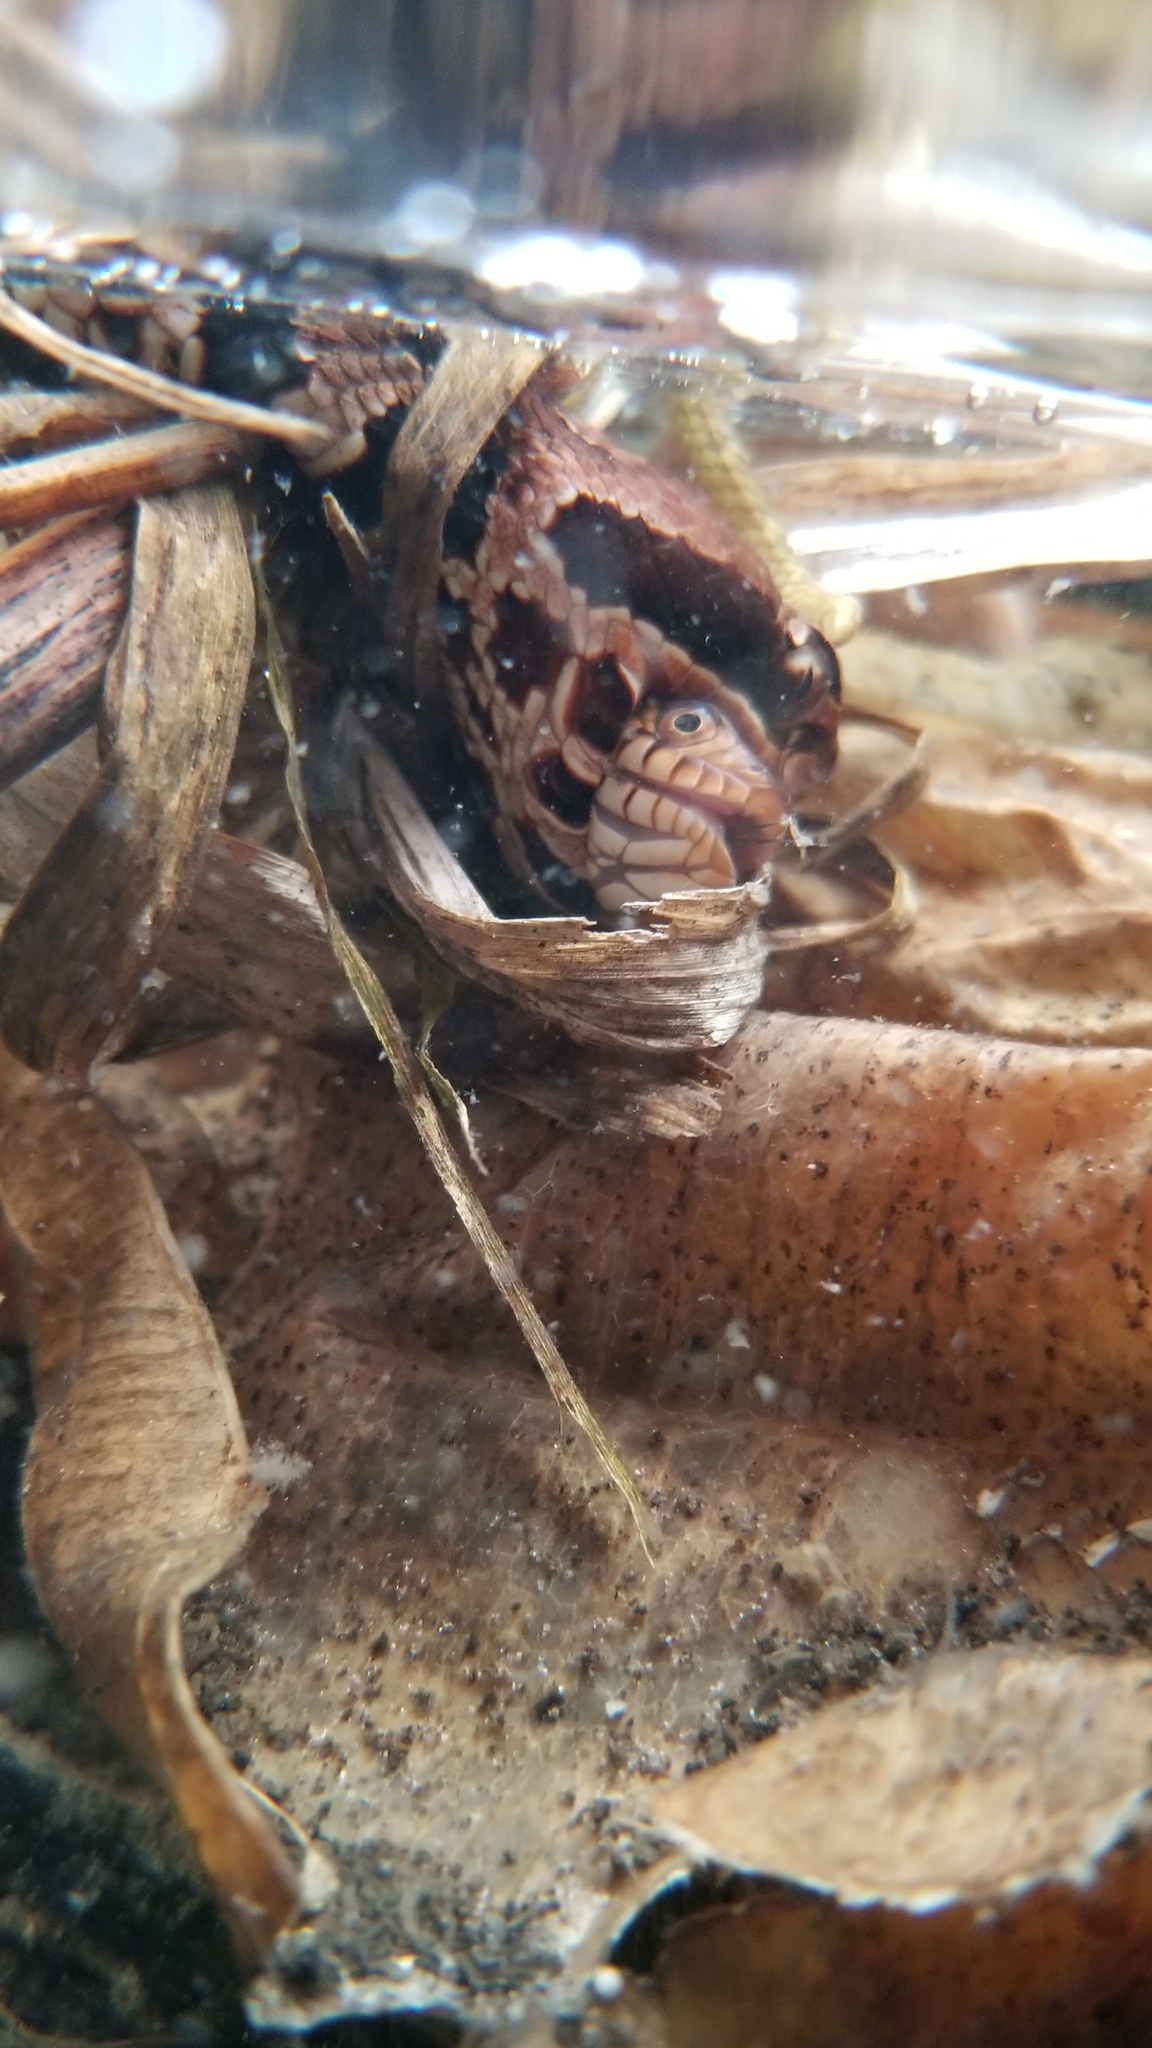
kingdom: Animalia
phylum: Chordata
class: Squamata
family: Colubridae
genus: Nerodia
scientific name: Nerodia fasciata
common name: Southern water snake
